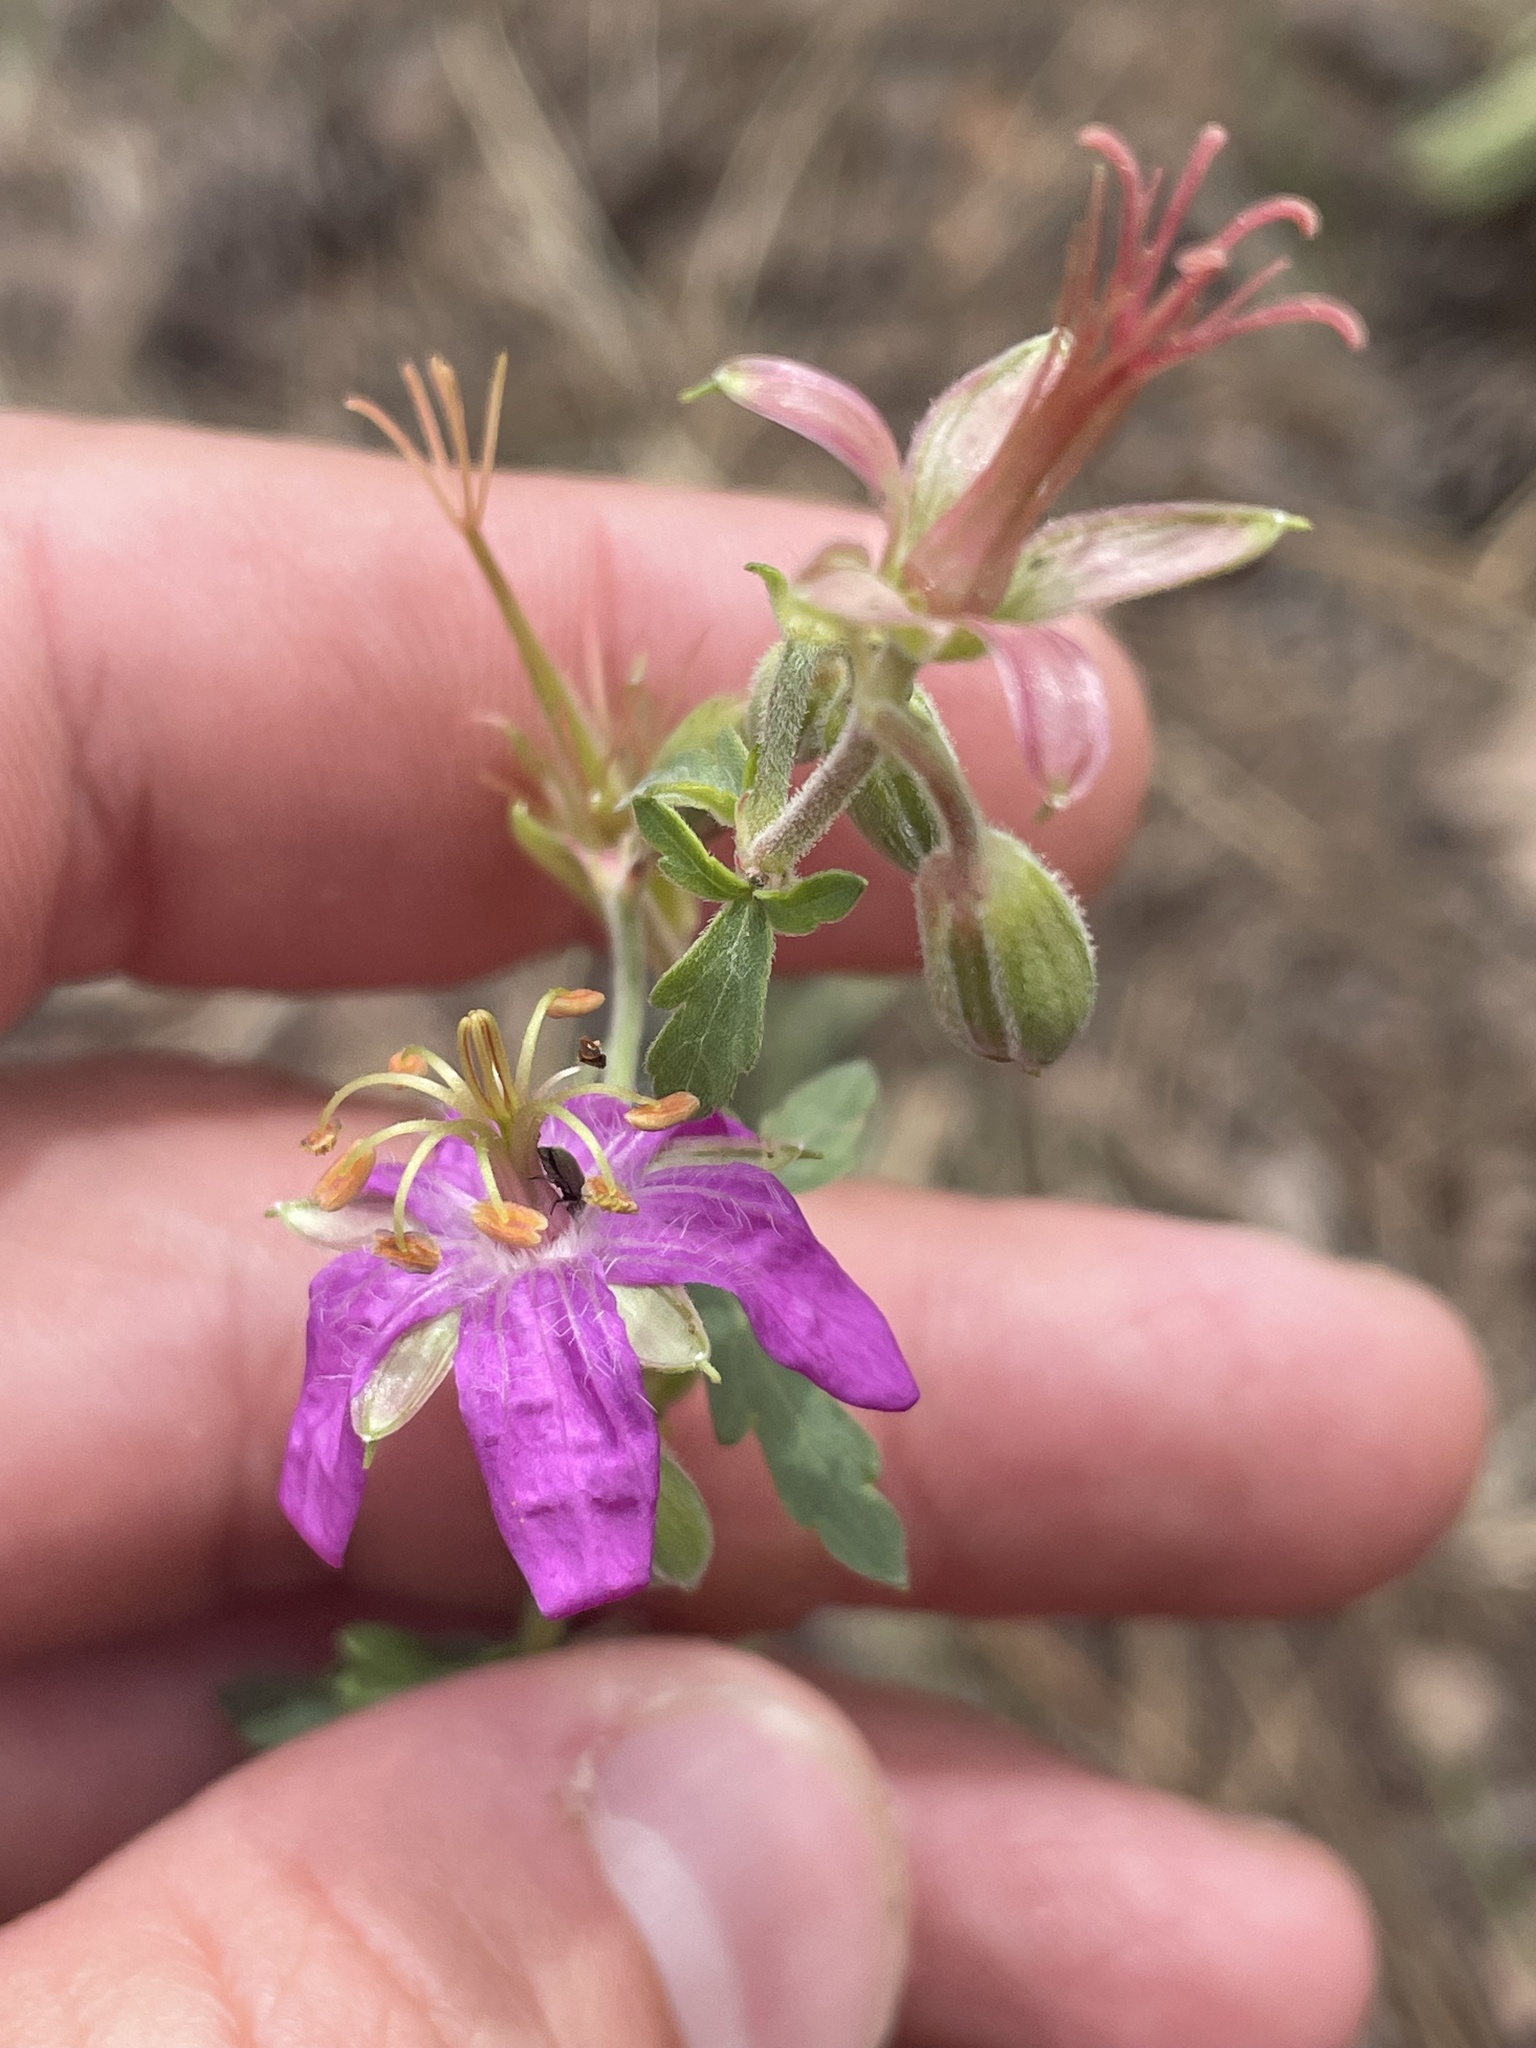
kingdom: Plantae
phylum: Tracheophyta
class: Magnoliopsida
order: Geraniales
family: Geraniaceae
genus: Geranium
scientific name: Geranium caespitosum
